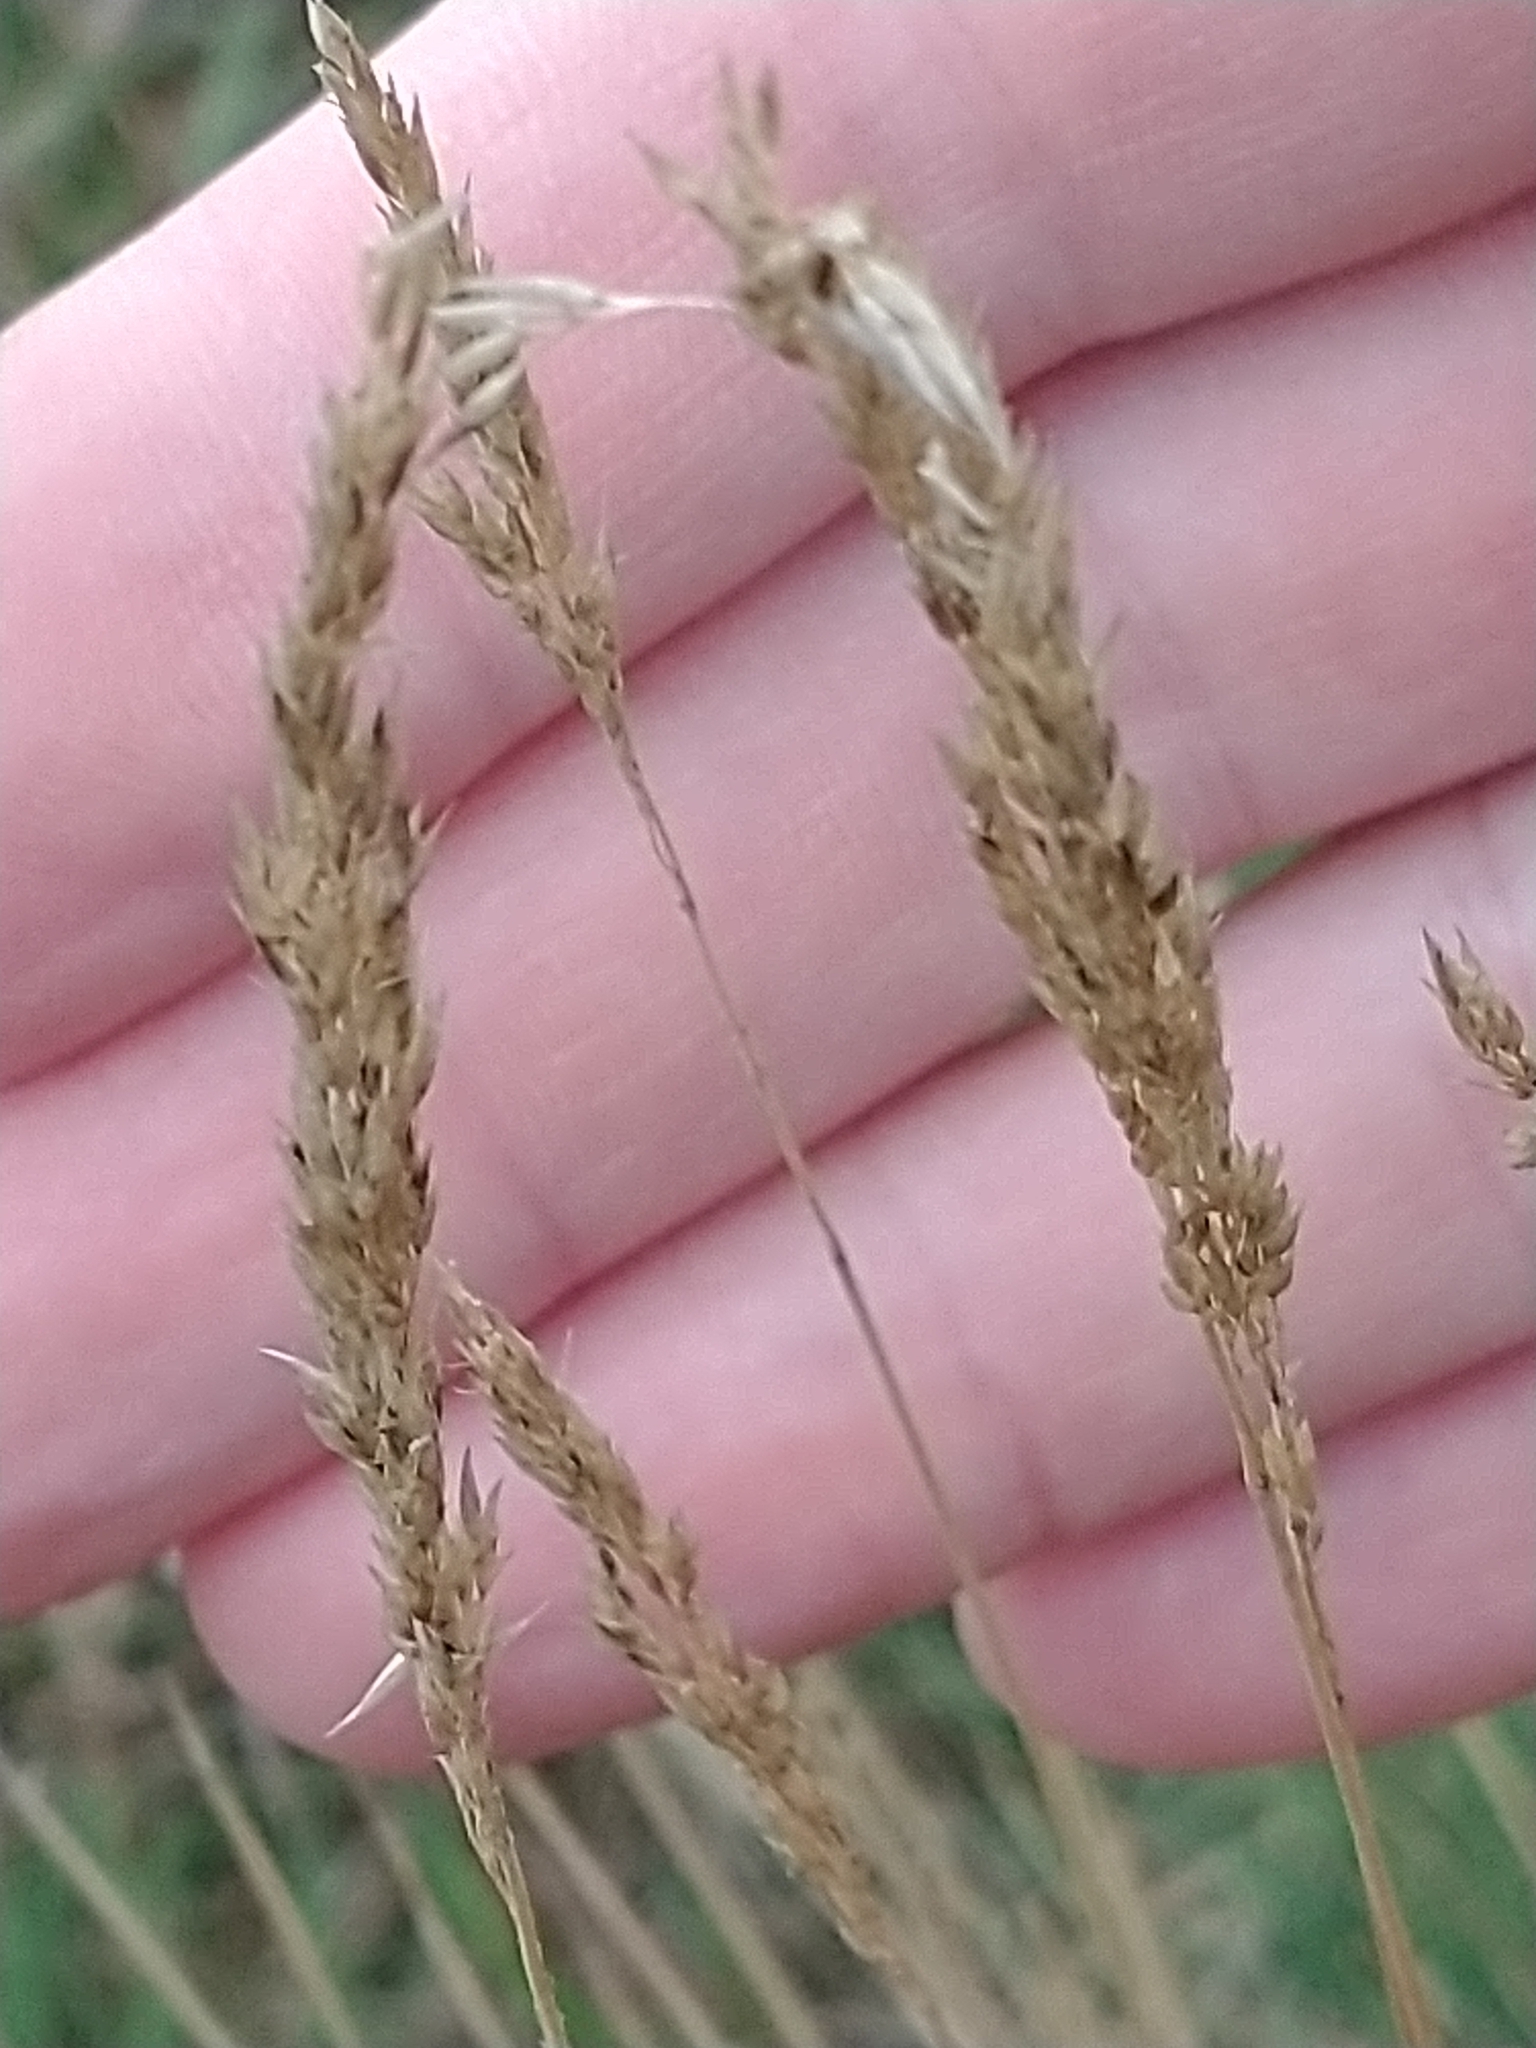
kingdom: Plantae
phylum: Tracheophyta
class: Liliopsida
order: Poales
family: Poaceae
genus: Alpagrostis
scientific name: Alpagrostis setacea
